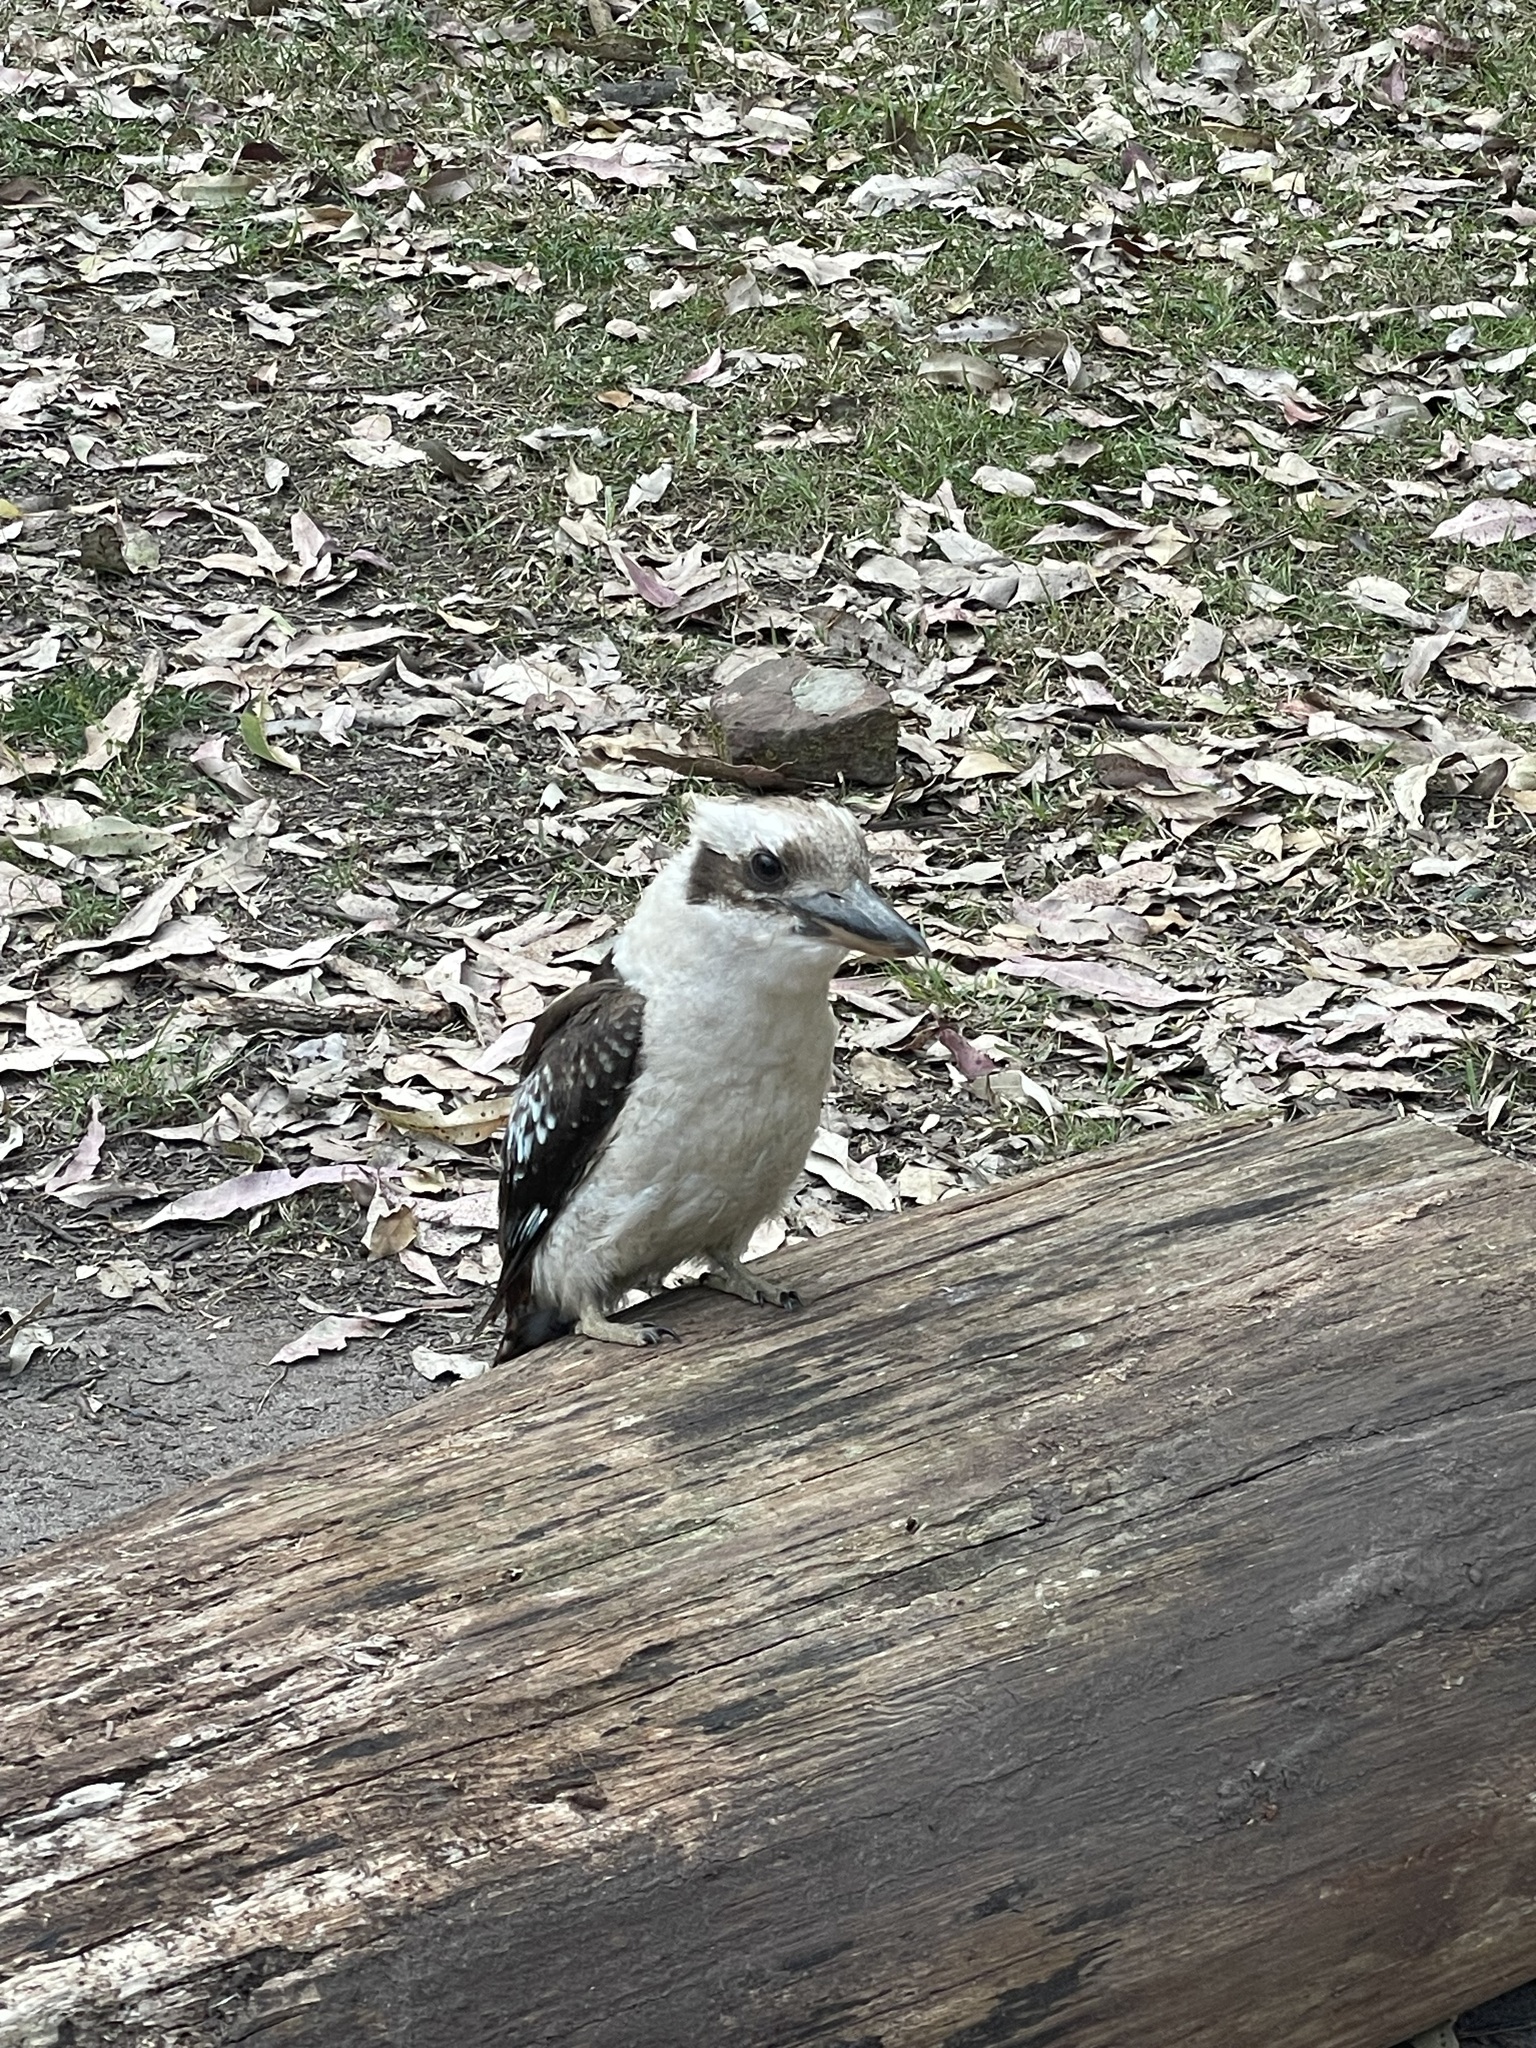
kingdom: Animalia
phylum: Chordata
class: Aves
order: Coraciiformes
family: Alcedinidae
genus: Dacelo
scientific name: Dacelo novaeguineae
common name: Laughing kookaburra
